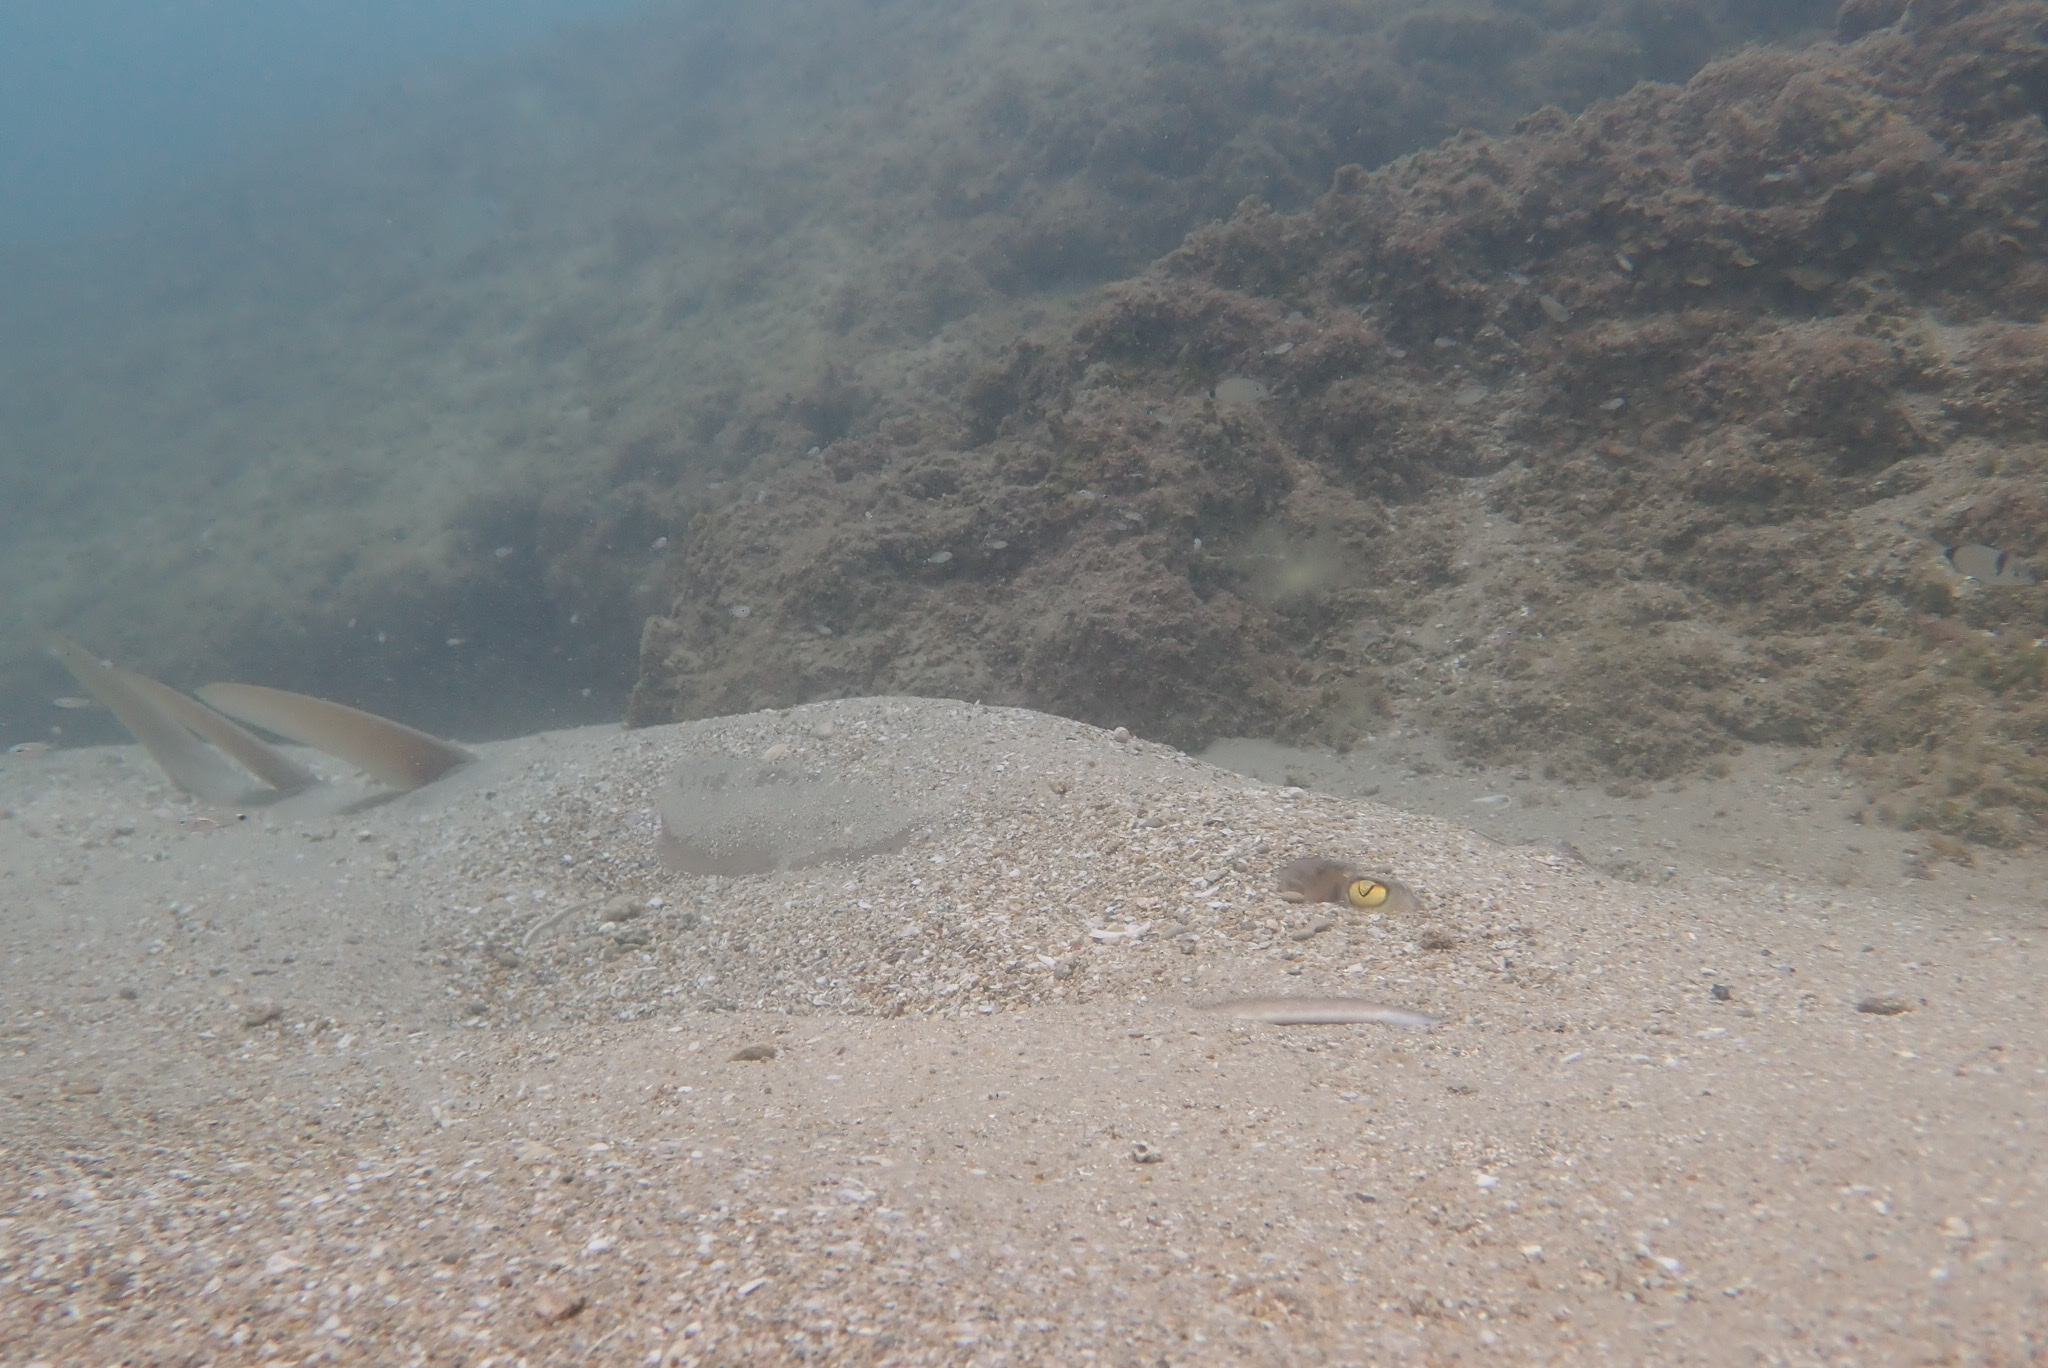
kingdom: Animalia
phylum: Chordata
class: Elasmobranchii
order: Rhinopristiformes
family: Glaucostegidae
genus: Glaucostegus
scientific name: Glaucostegus cemiculus
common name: Blackchin guitarfish
